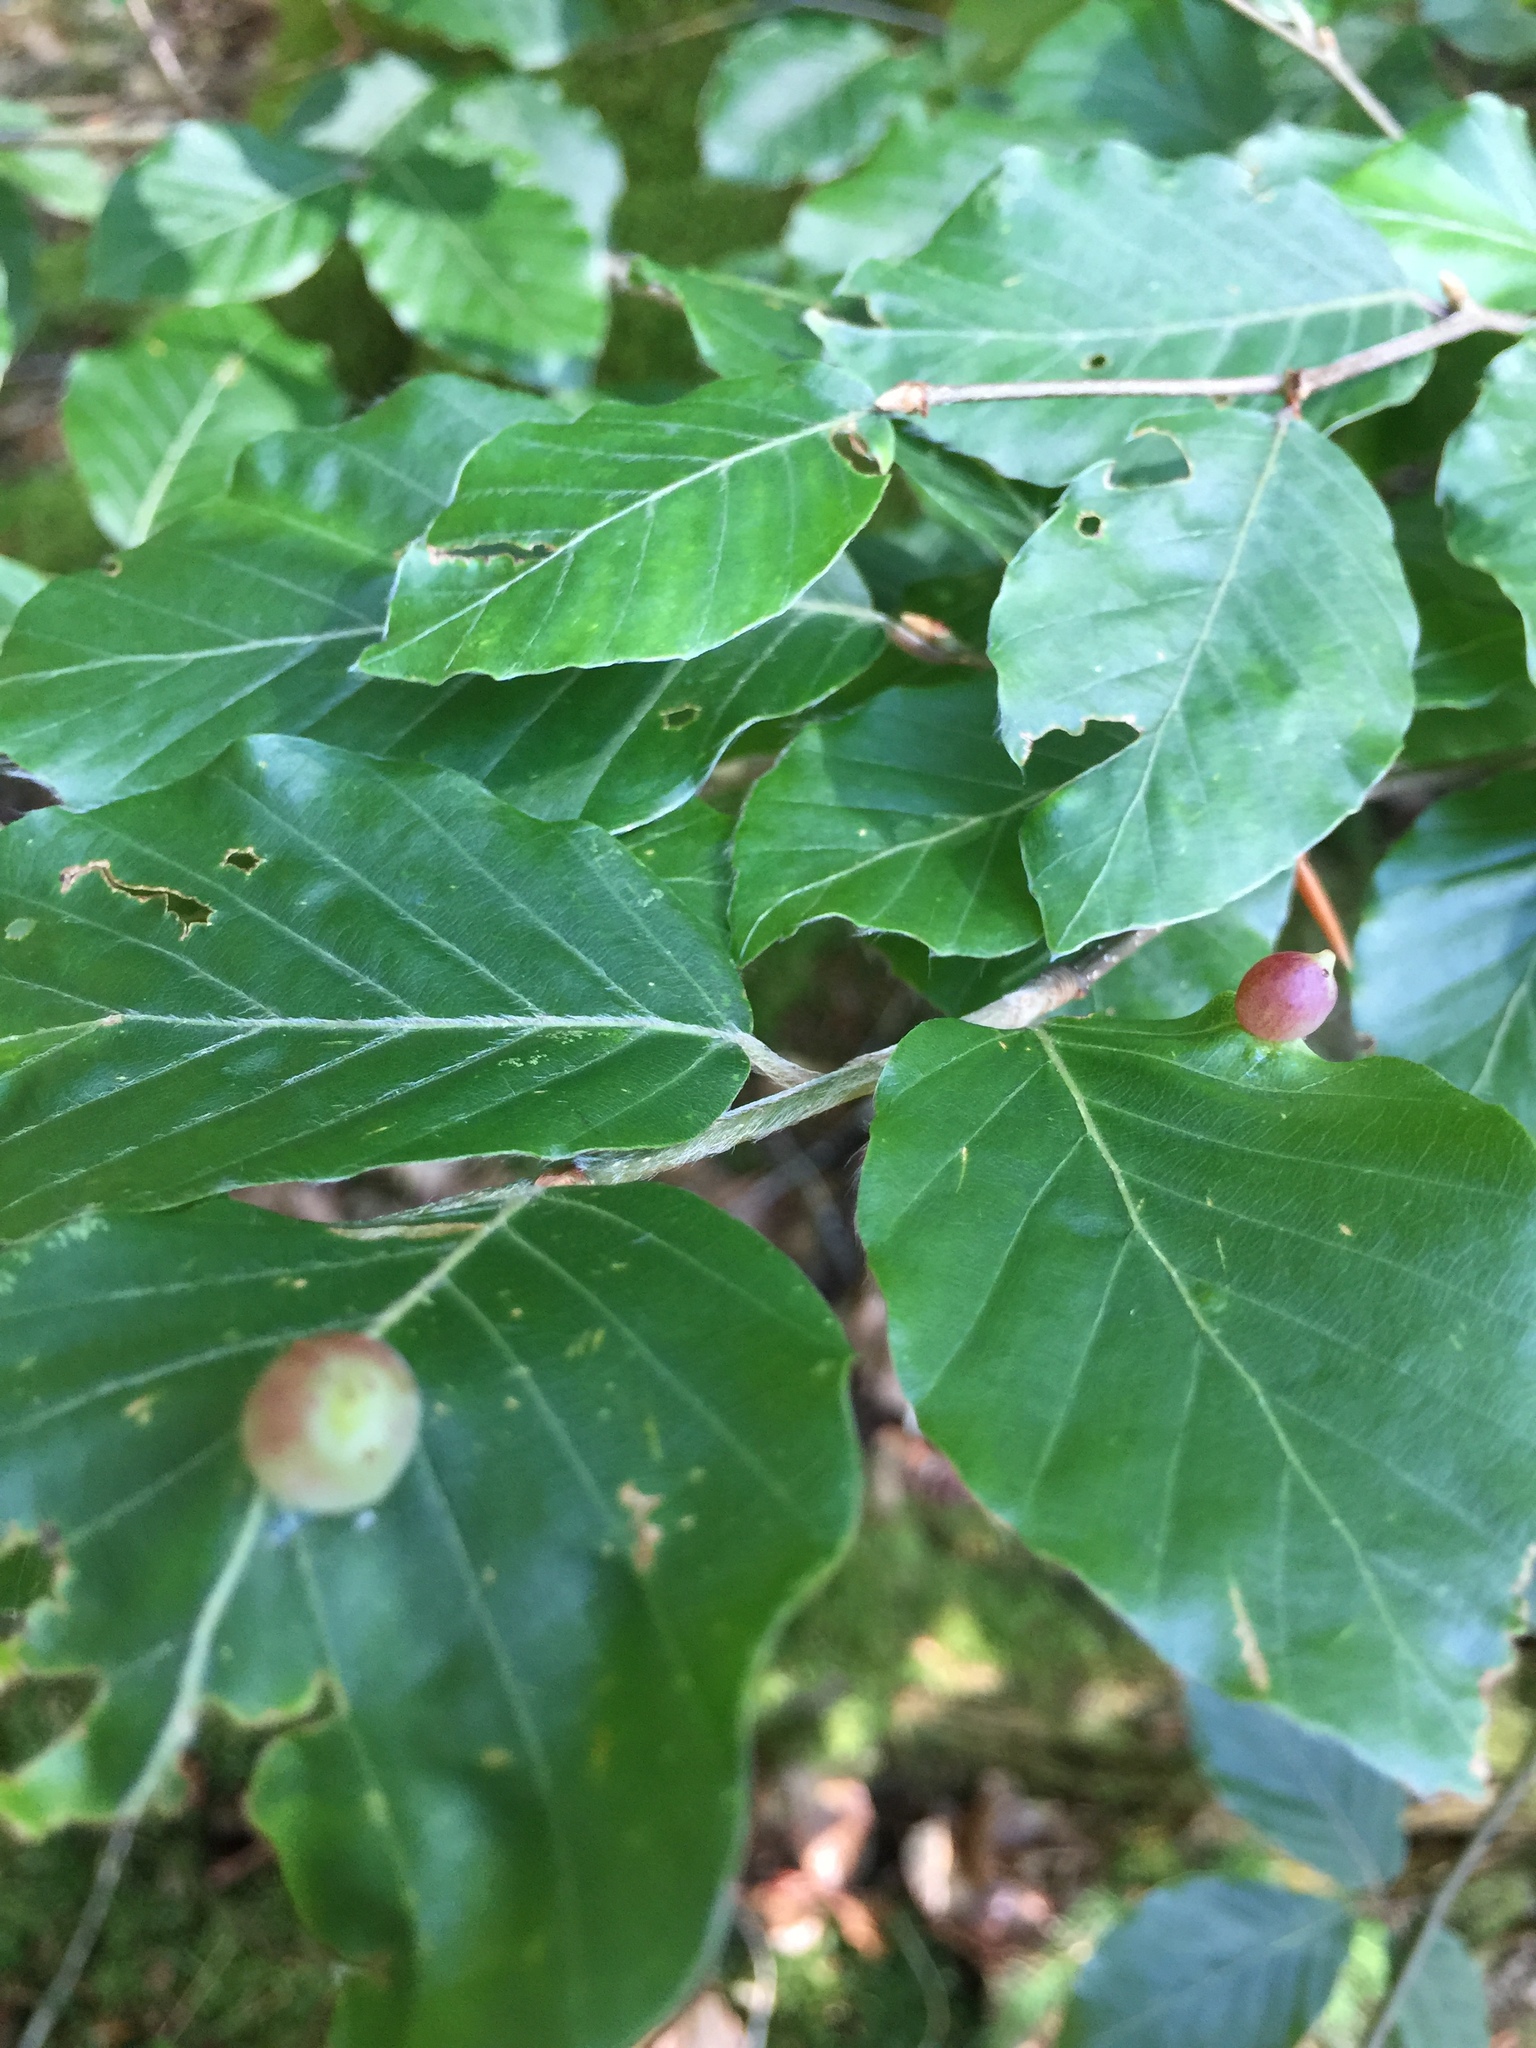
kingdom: Animalia
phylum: Arthropoda
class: Insecta
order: Diptera
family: Cecidomyiidae
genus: Mikiola
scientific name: Mikiola fagi
